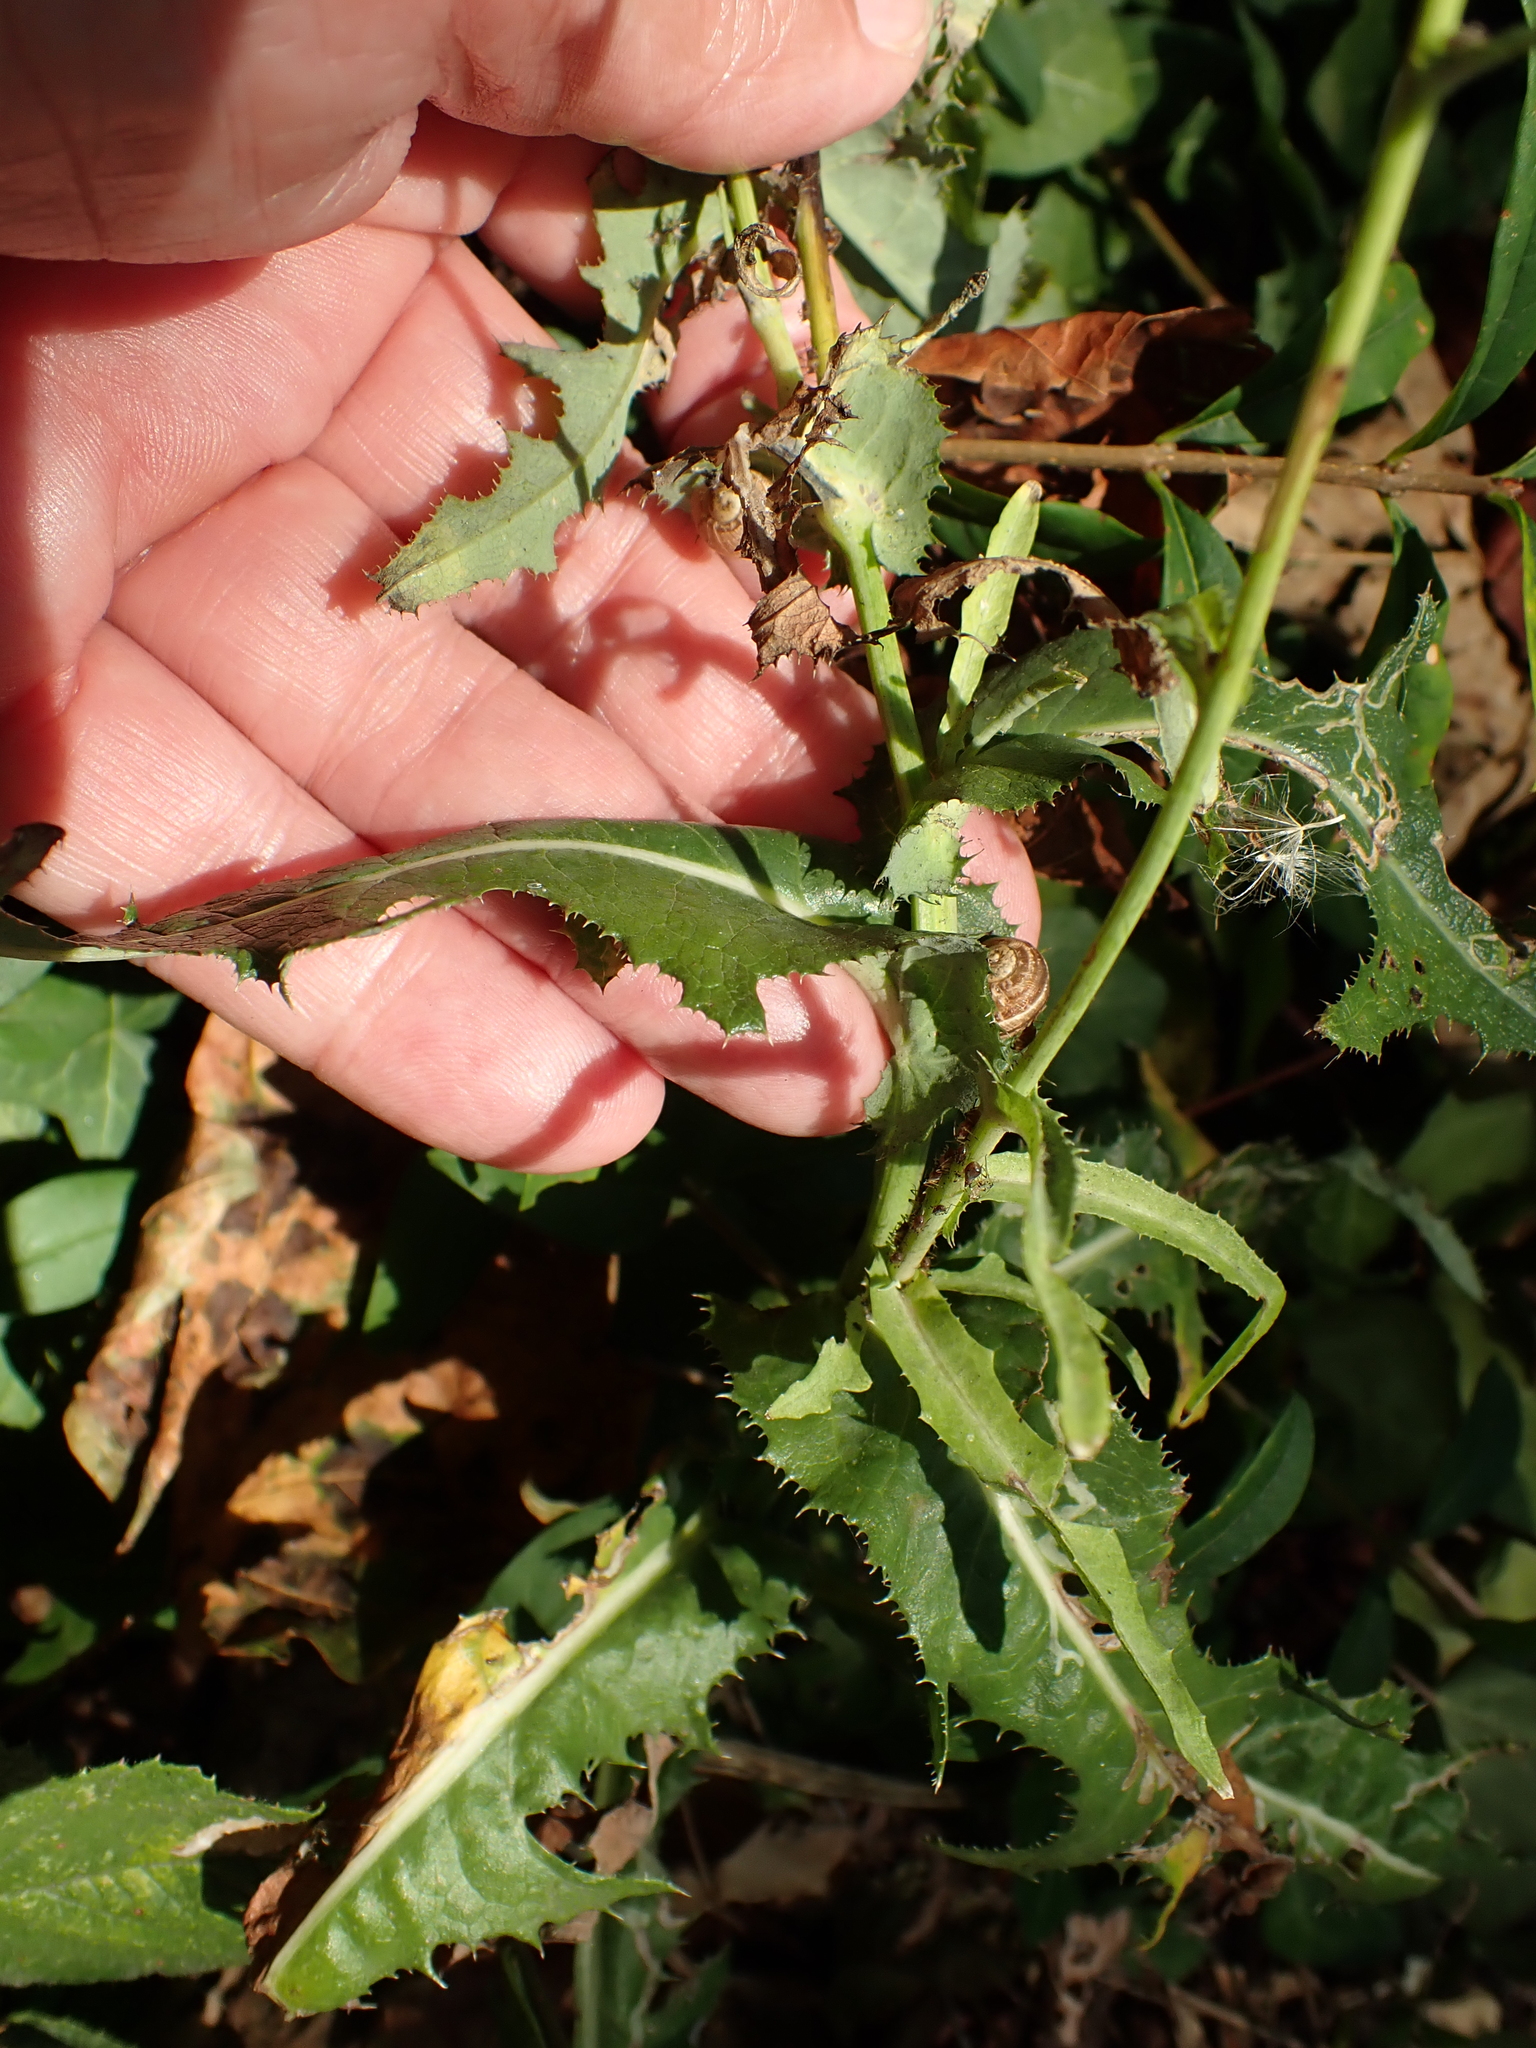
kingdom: Plantae
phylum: Tracheophyta
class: Magnoliopsida
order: Asterales
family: Asteraceae
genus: Sonchus
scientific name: Sonchus arvensis
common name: Perennial sow-thistle
